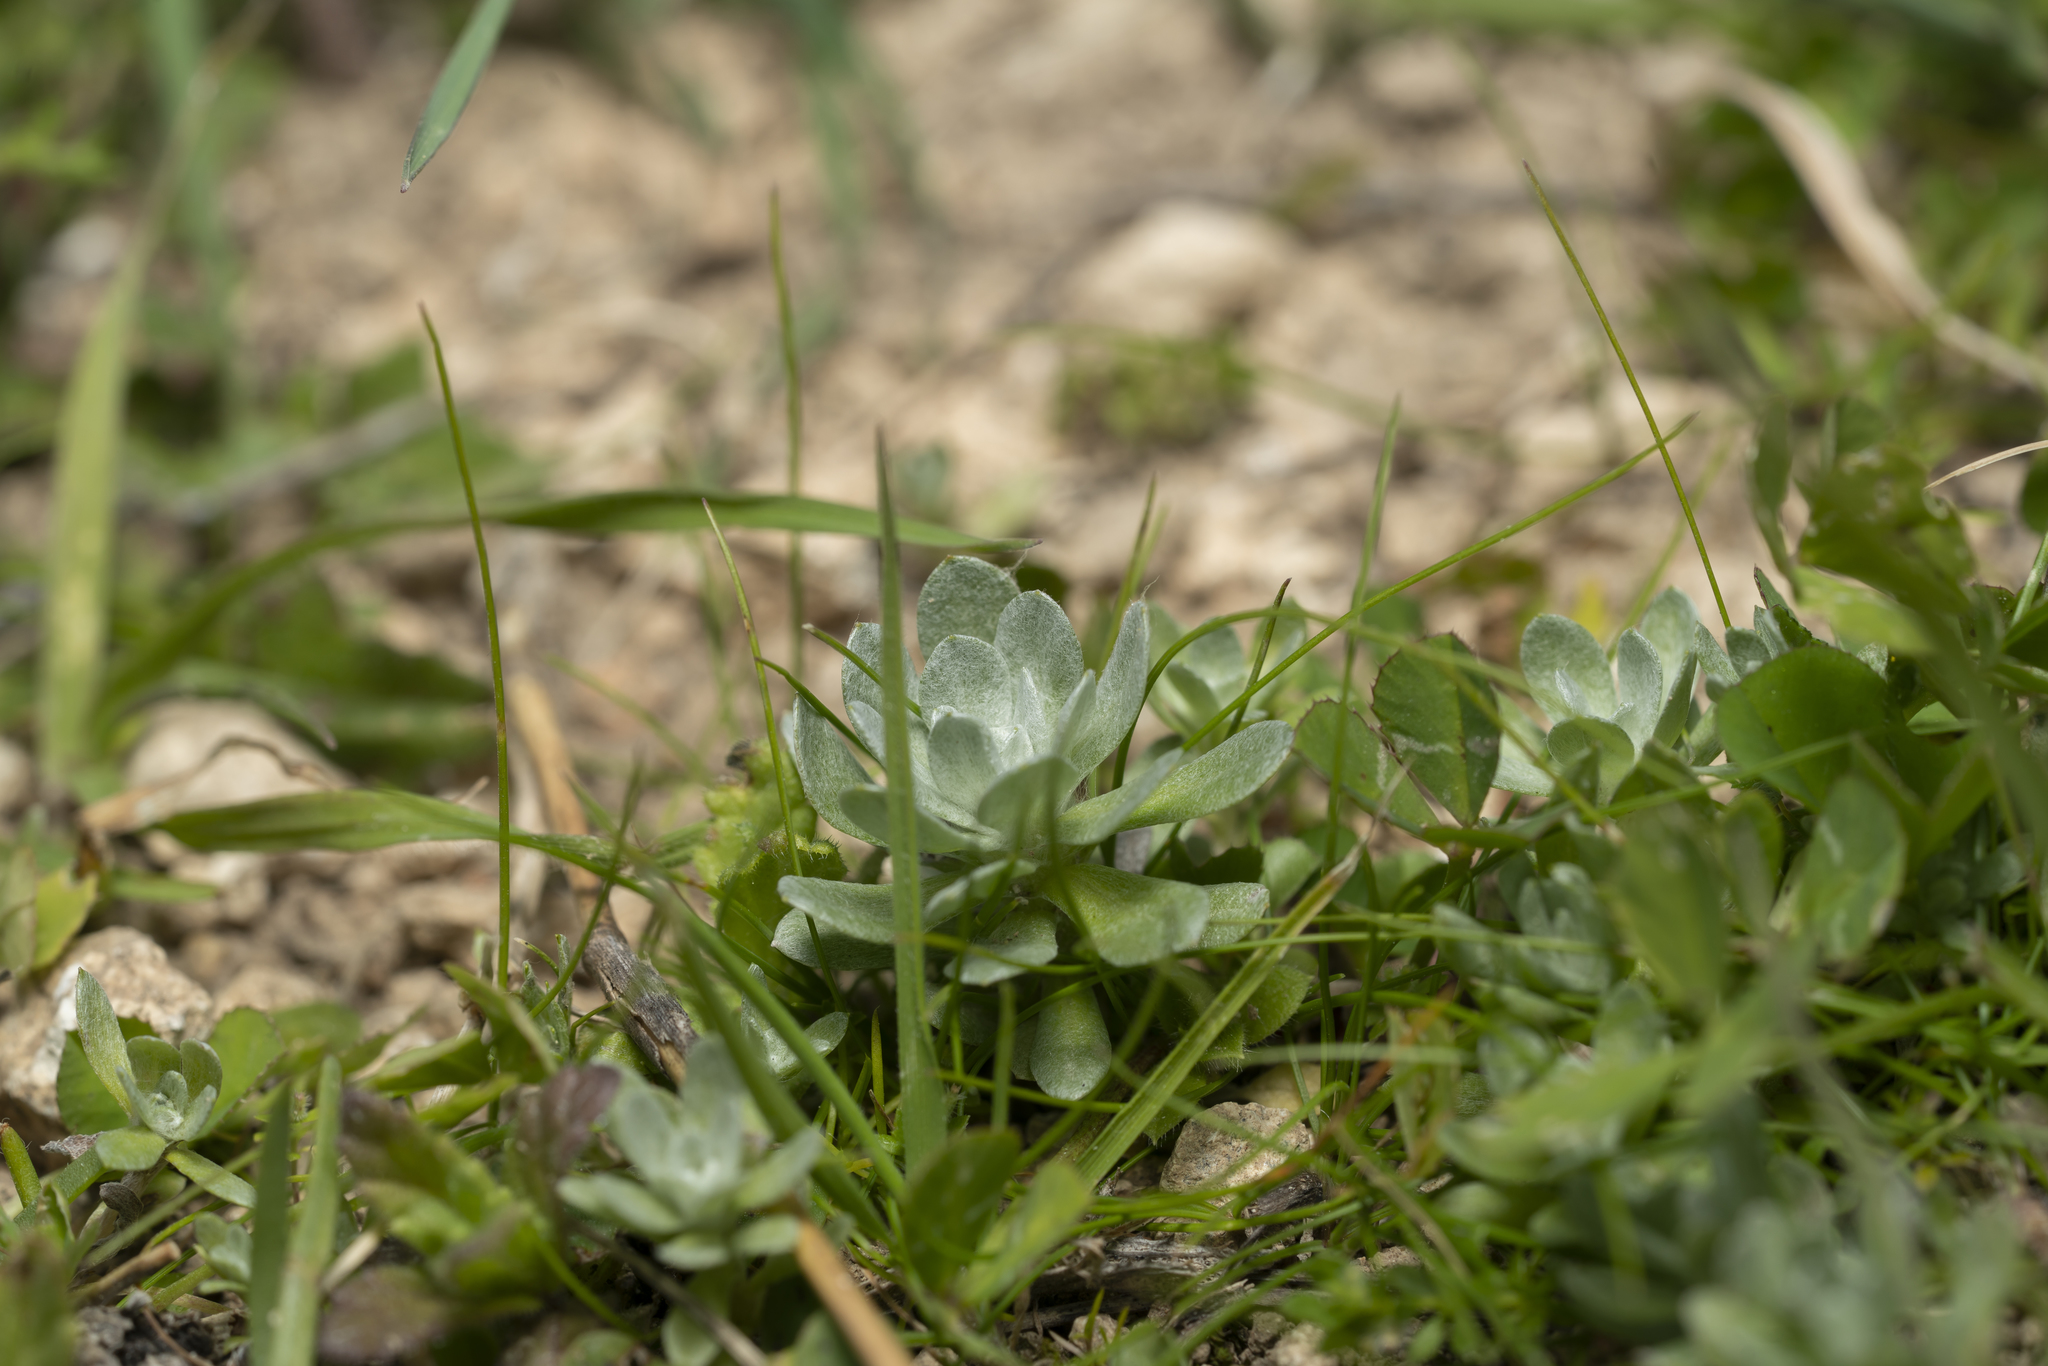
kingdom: Plantae
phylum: Tracheophyta
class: Magnoliopsida
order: Asterales
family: Asteraceae
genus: Filago
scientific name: Filago pygmaea
